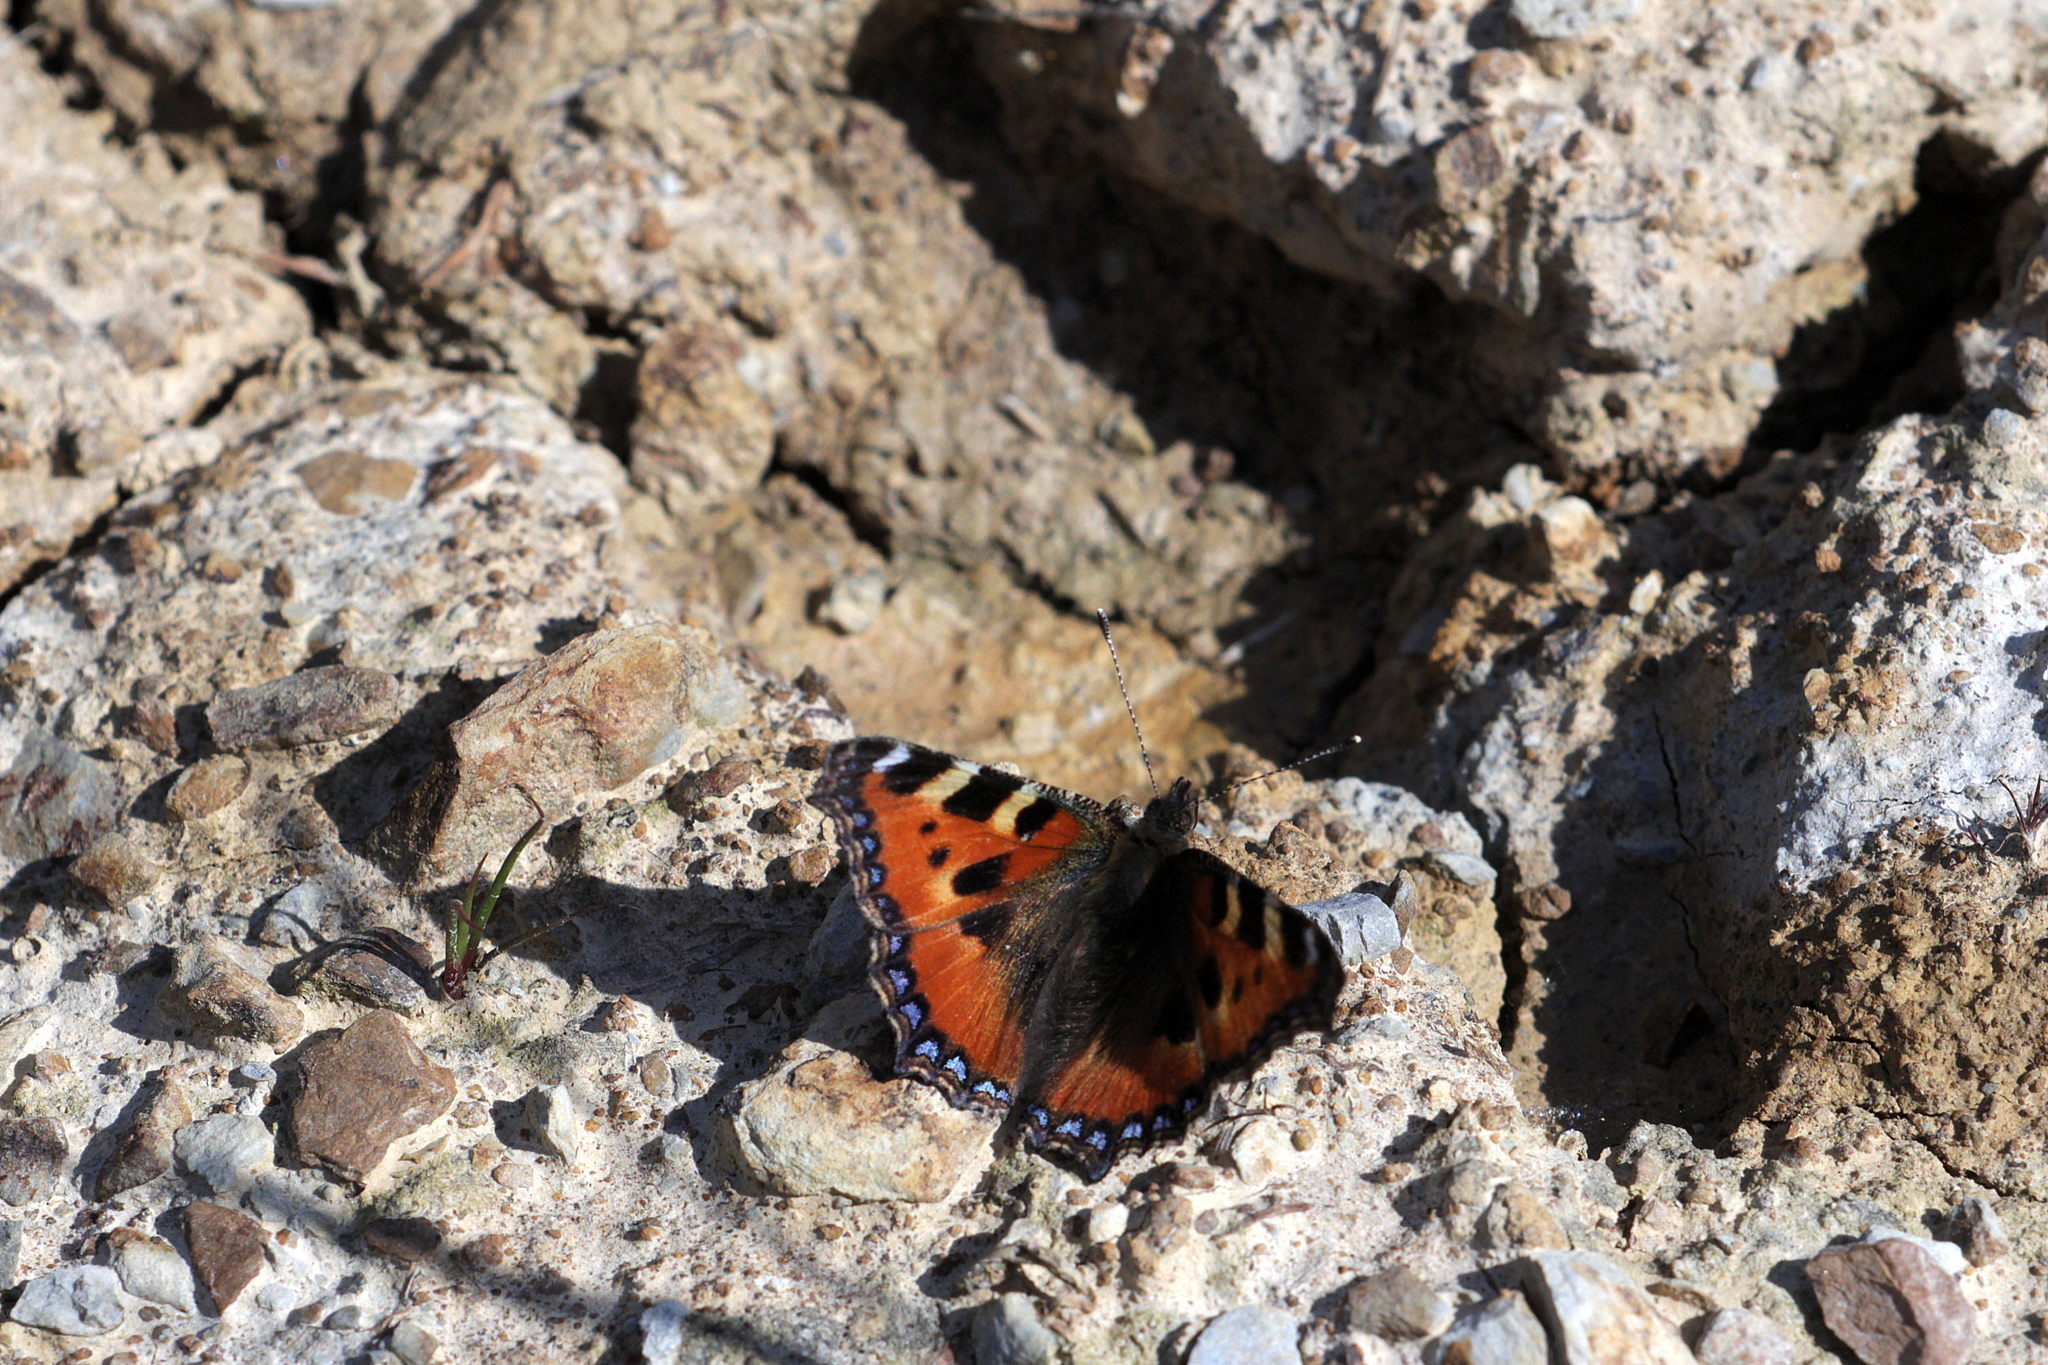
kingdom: Animalia
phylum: Arthropoda
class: Insecta
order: Lepidoptera
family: Nymphalidae
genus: Aglais
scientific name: Aglais urticae
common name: Small tortoiseshell
